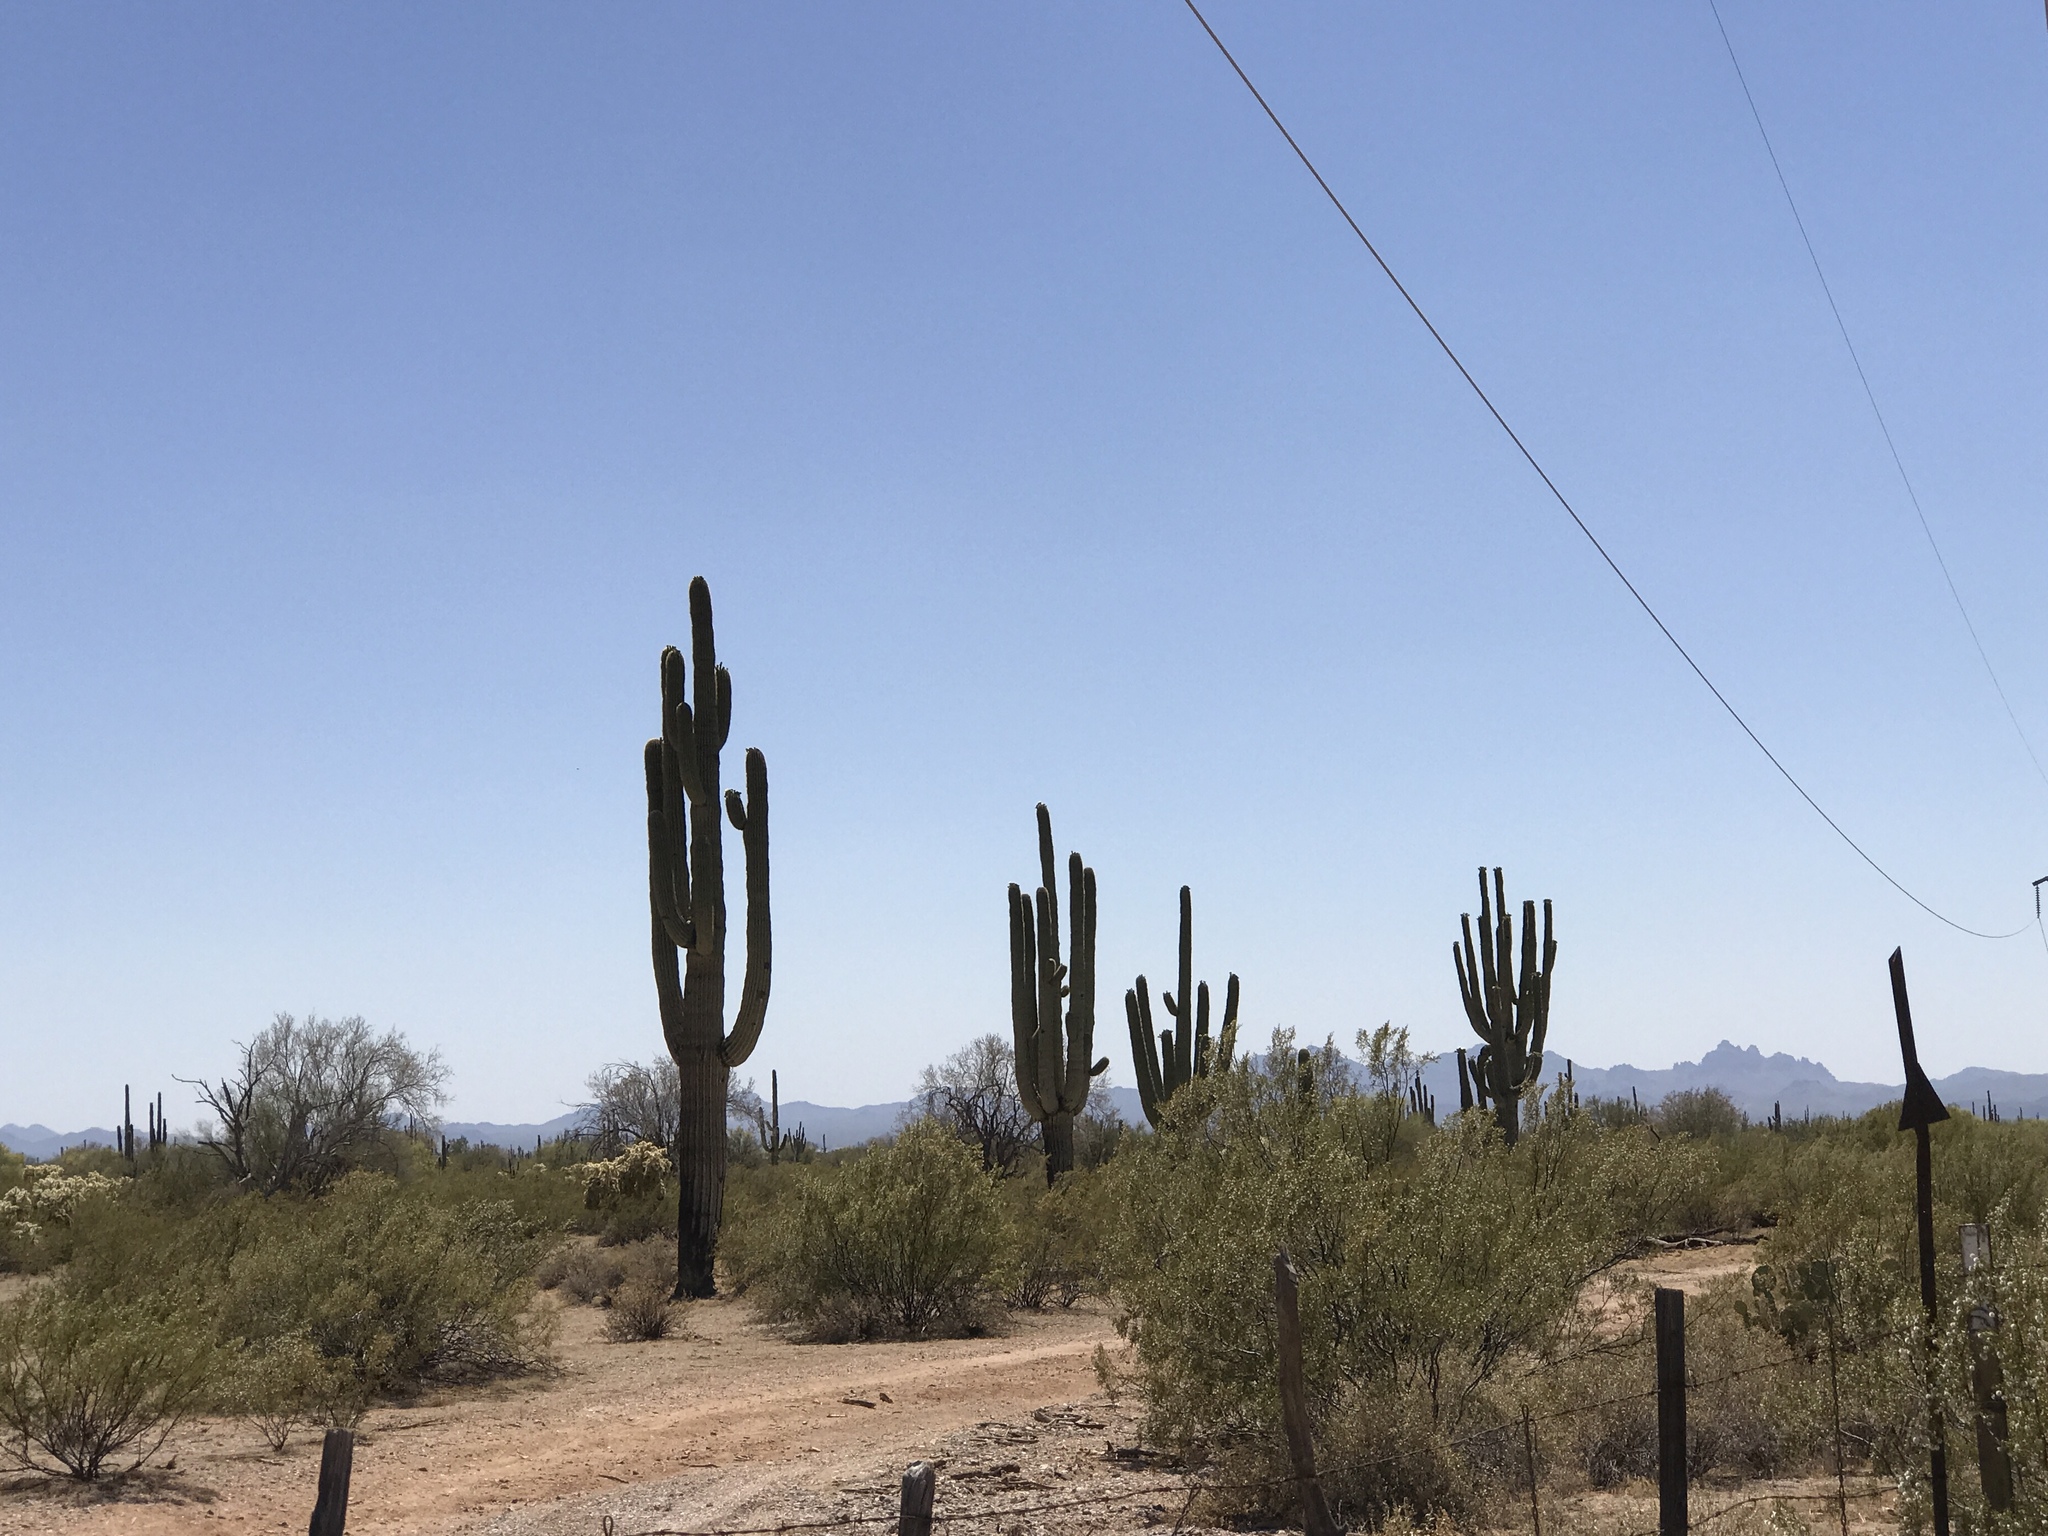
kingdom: Plantae
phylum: Tracheophyta
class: Magnoliopsida
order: Caryophyllales
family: Cactaceae
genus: Carnegiea
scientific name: Carnegiea gigantea
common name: Saguaro
